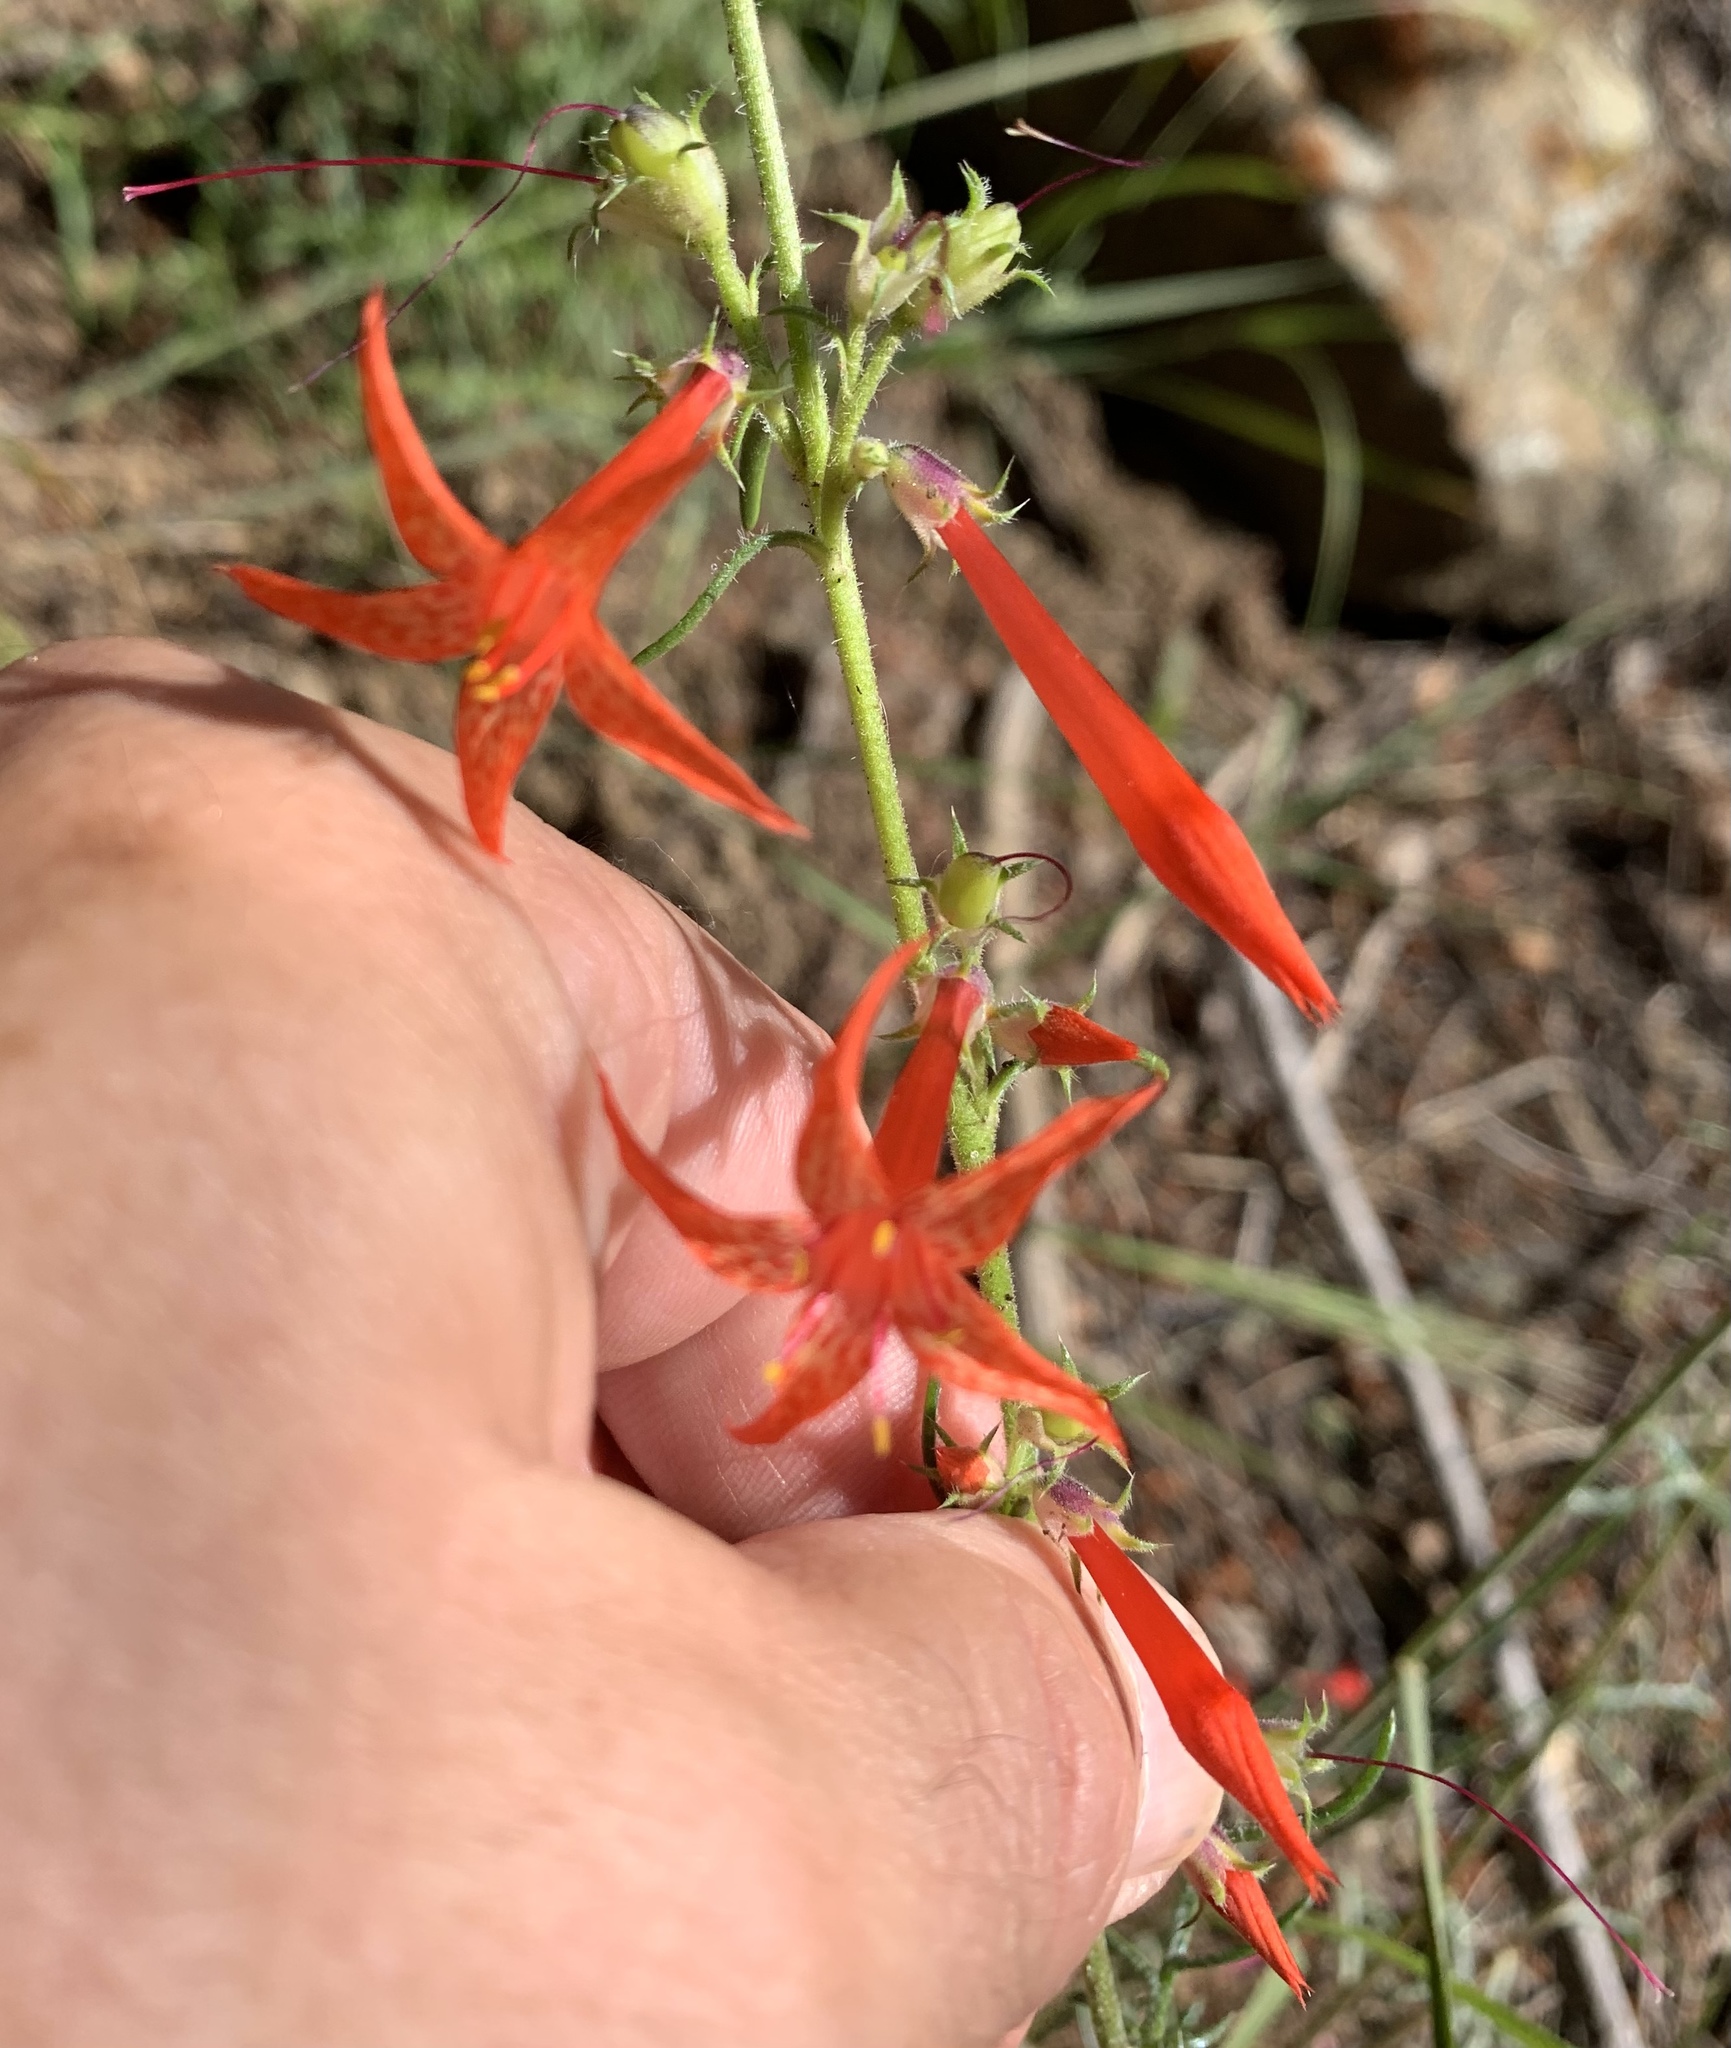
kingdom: Plantae
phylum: Tracheophyta
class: Magnoliopsida
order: Ericales
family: Polemoniaceae
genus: Ipomopsis
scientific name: Ipomopsis aggregata
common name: Scarlet gilia
